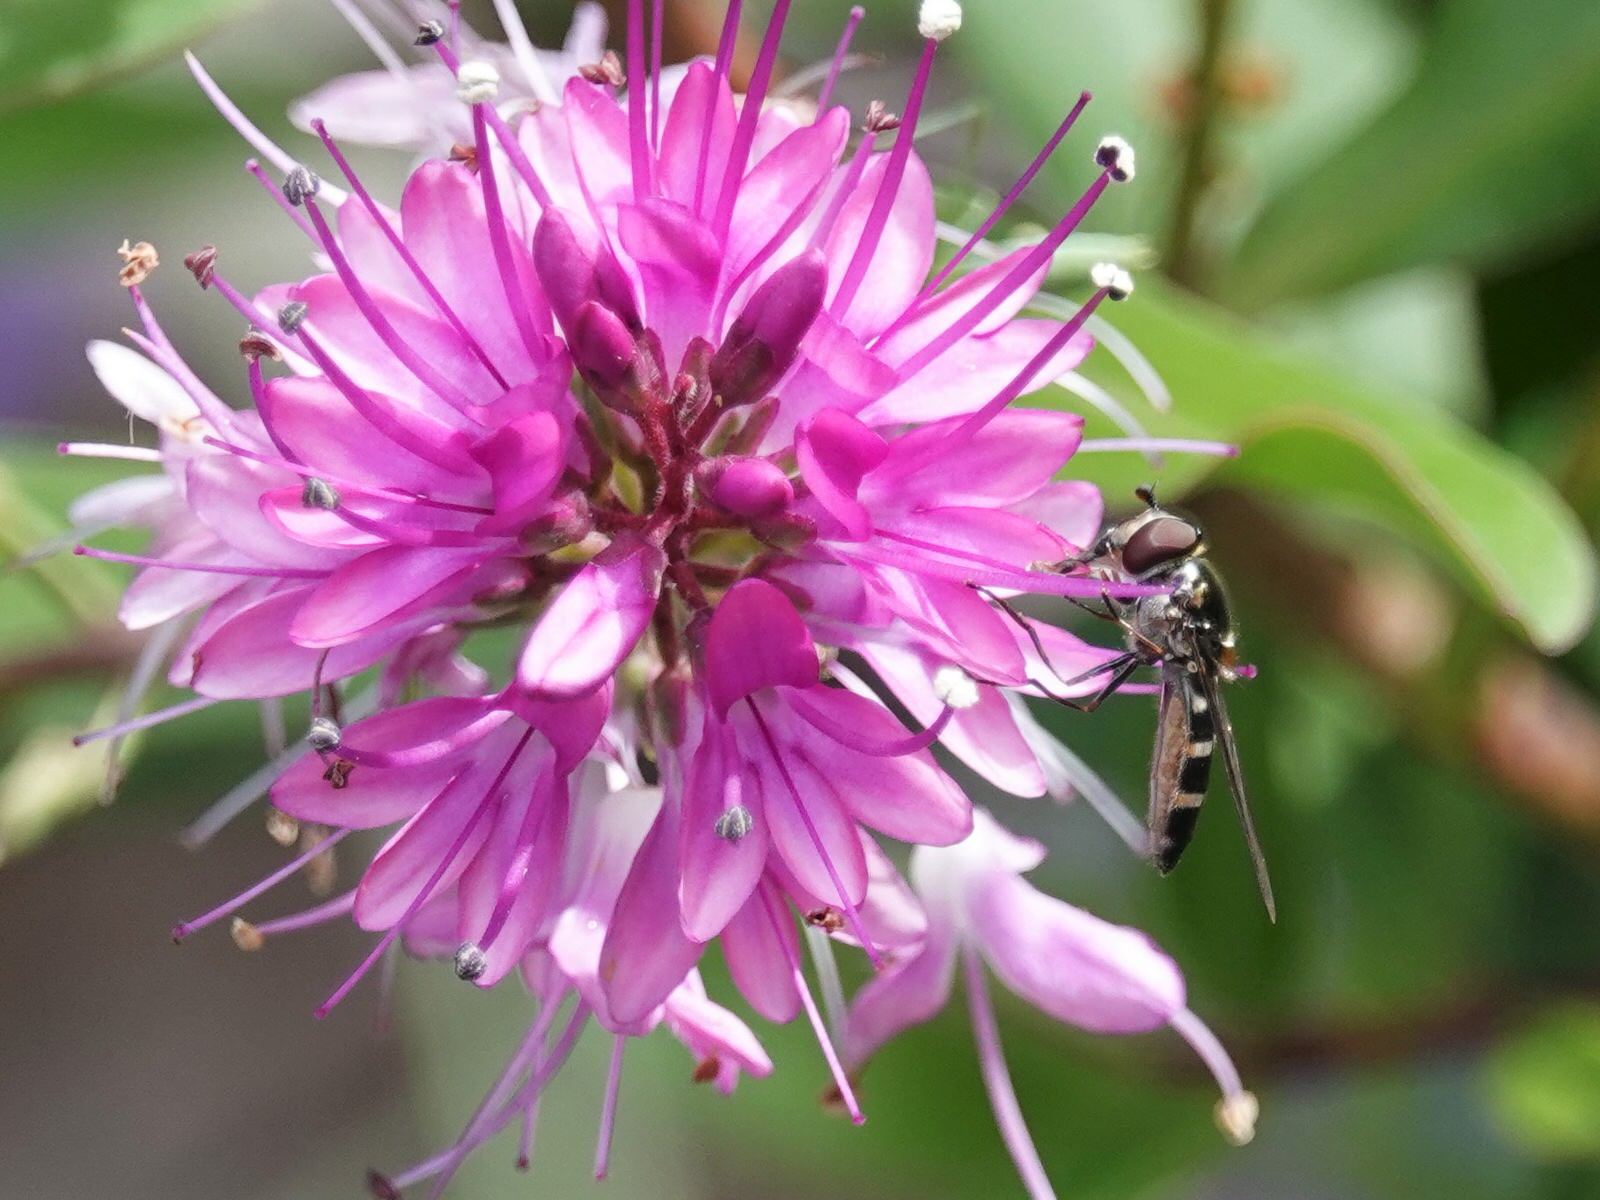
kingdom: Animalia
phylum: Arthropoda
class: Insecta
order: Diptera
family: Syrphidae
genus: Melangyna
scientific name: Melangyna novaezelandiae
